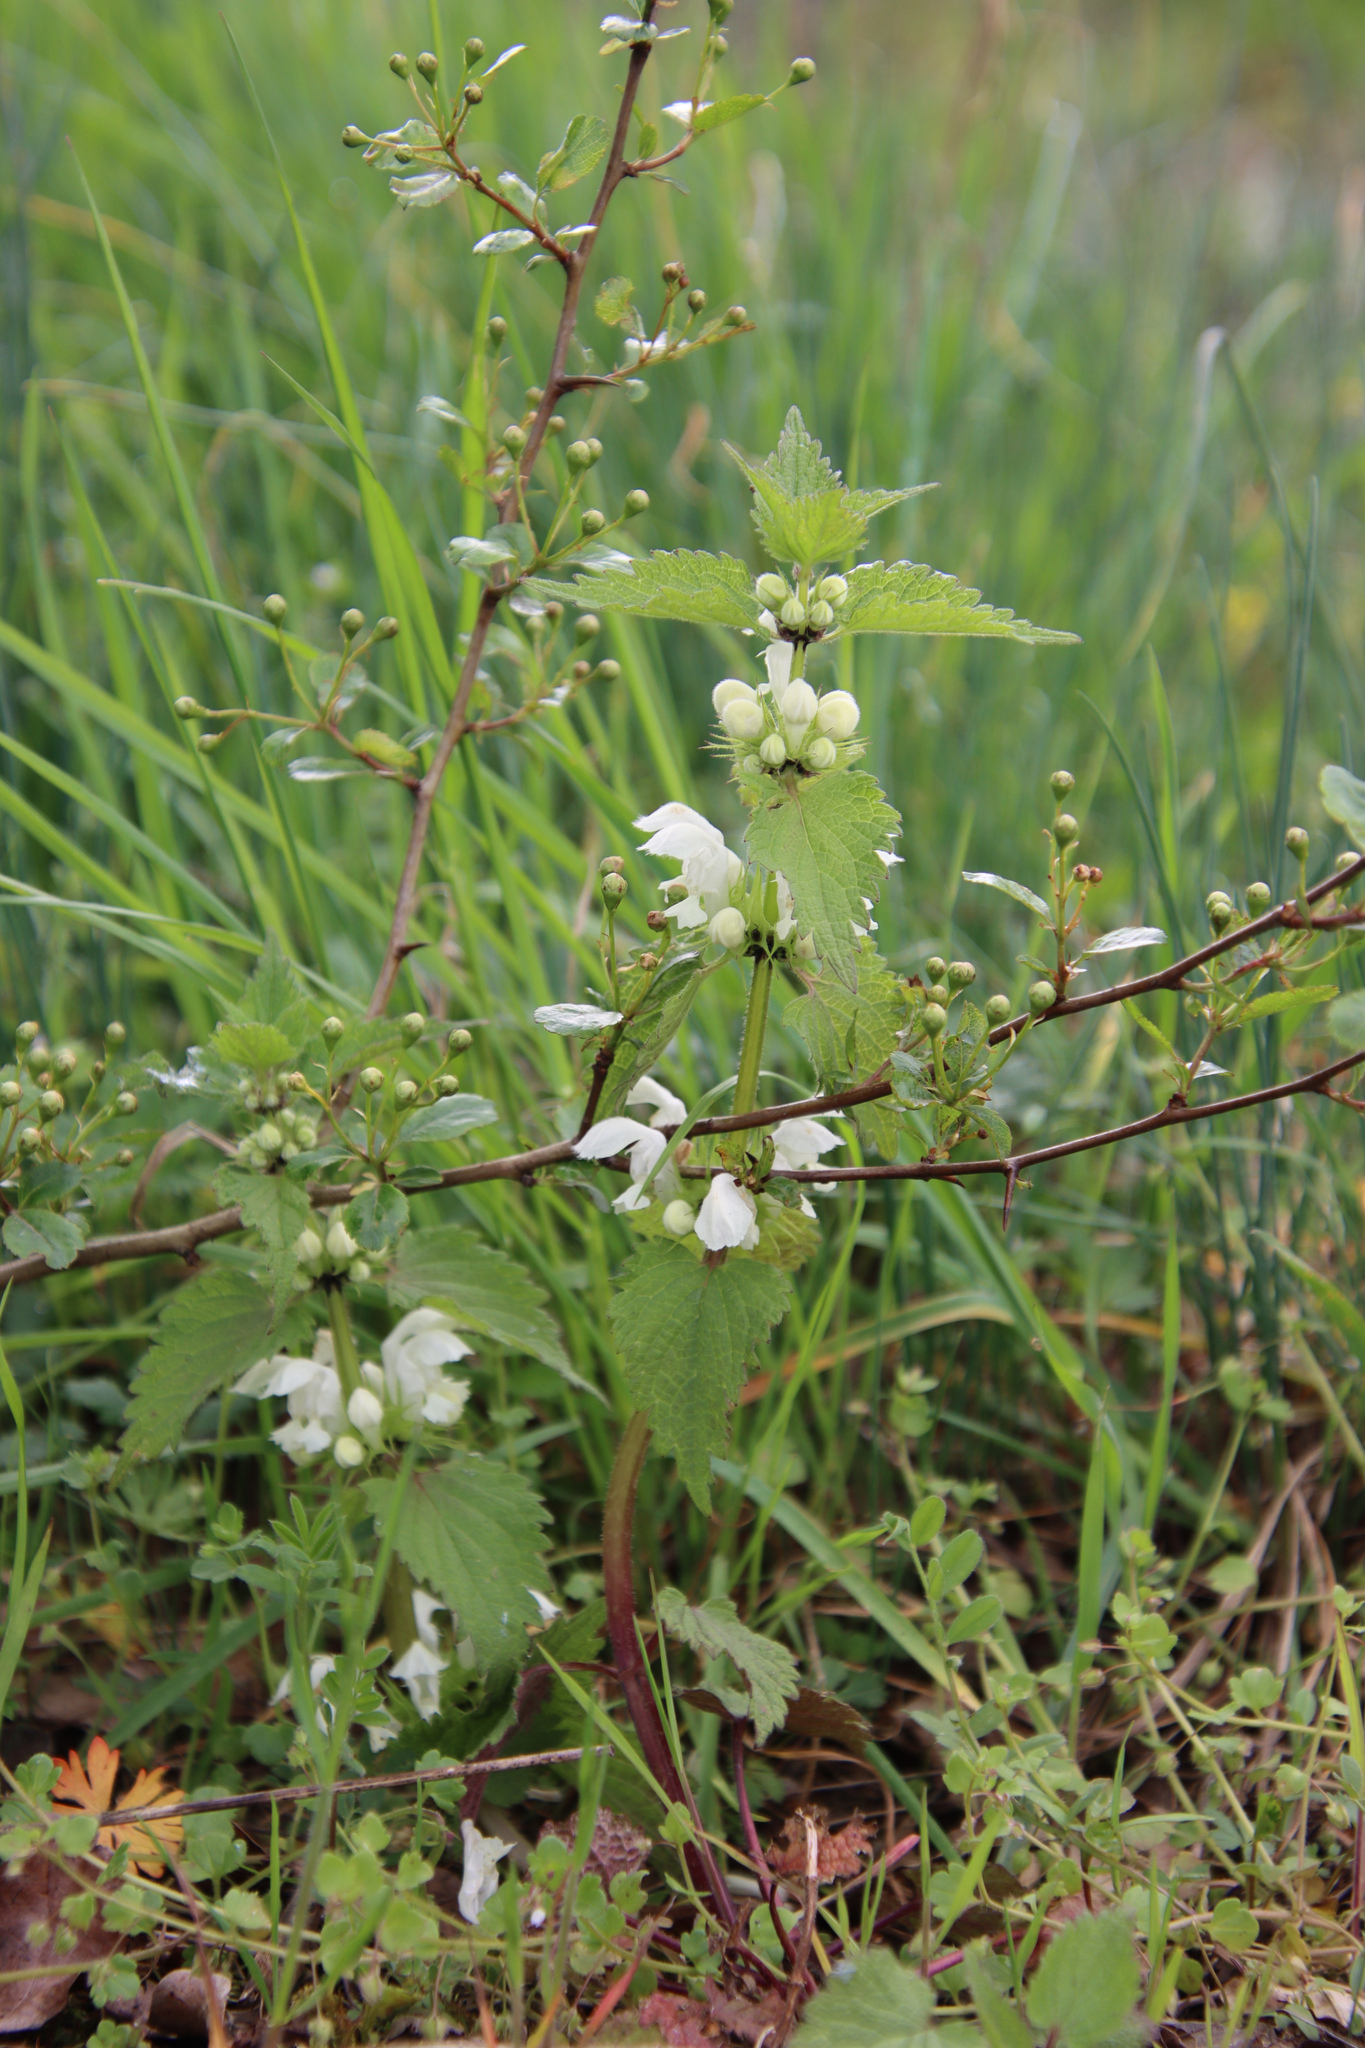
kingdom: Plantae
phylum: Tracheophyta
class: Magnoliopsida
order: Lamiales
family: Lamiaceae
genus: Lamium
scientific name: Lamium album
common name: White dead-nettle
